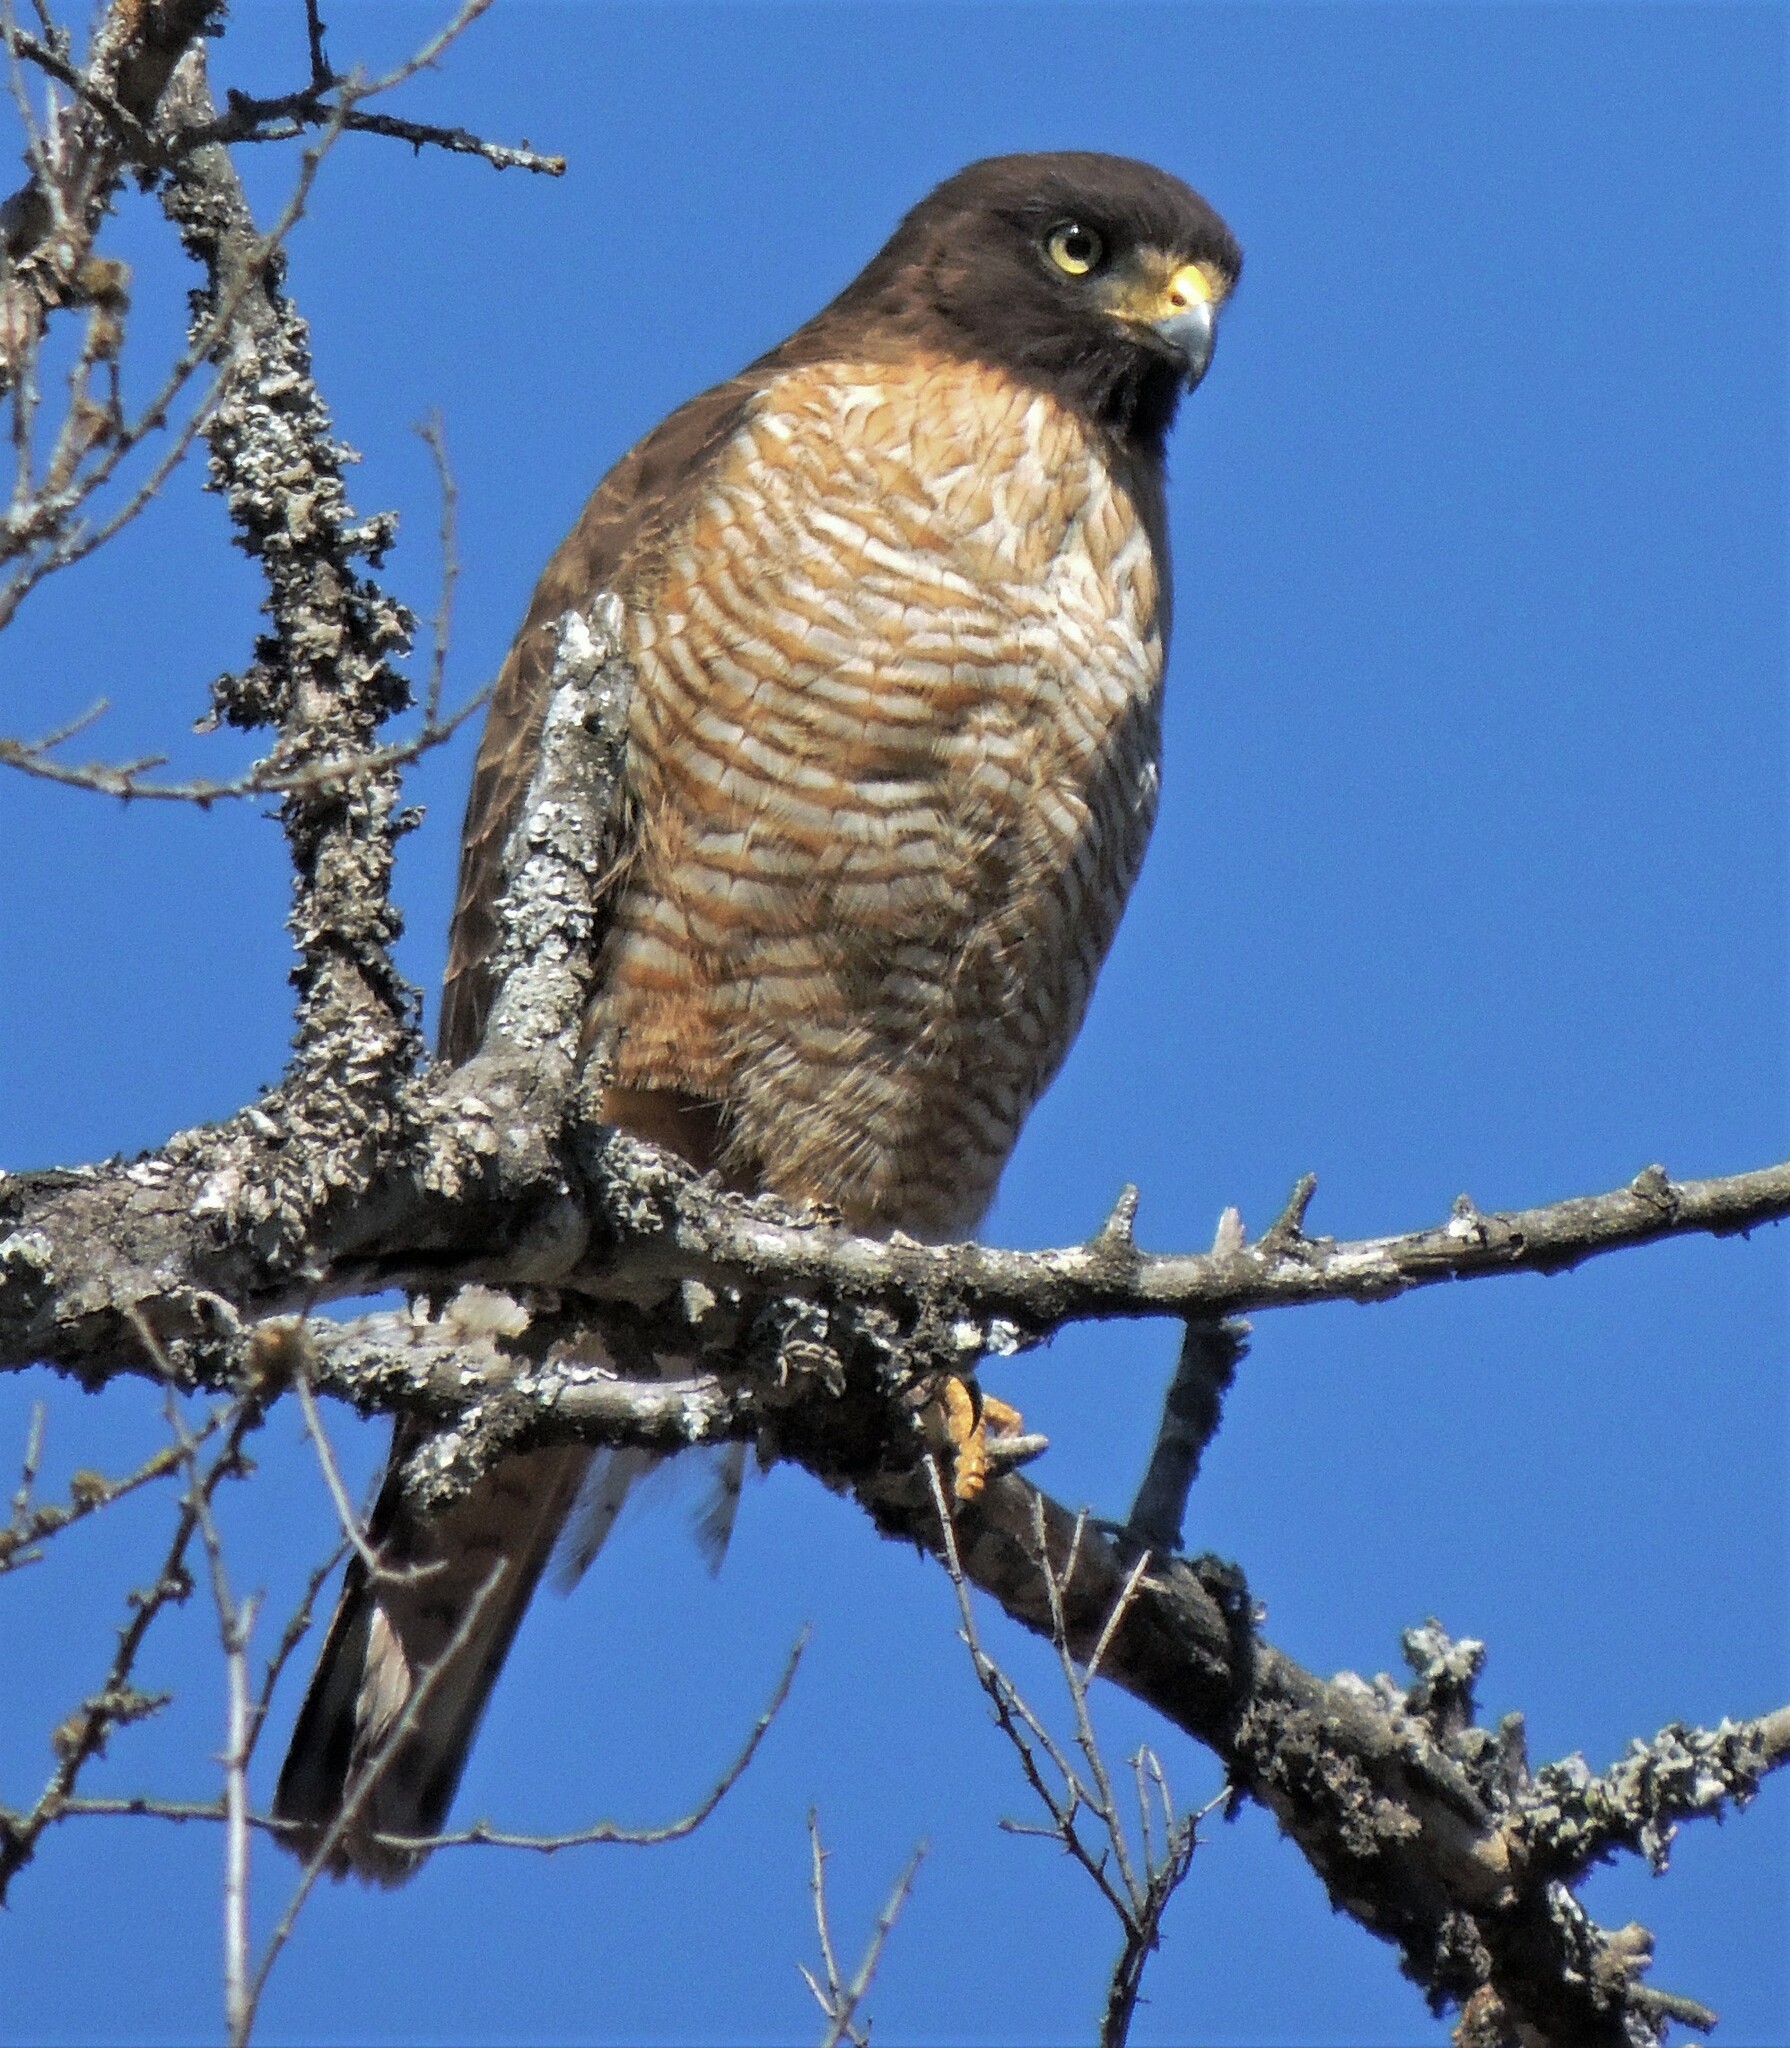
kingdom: Animalia
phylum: Chordata
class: Aves
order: Accipitriformes
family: Accipitridae
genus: Rupornis
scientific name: Rupornis magnirostris
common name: Roadside hawk
